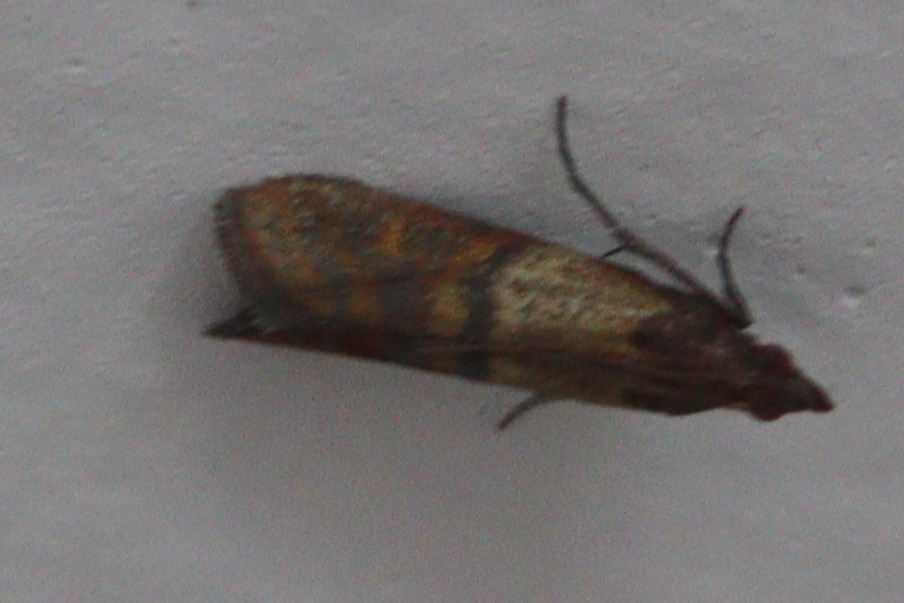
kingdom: Animalia
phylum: Arthropoda
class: Insecta
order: Lepidoptera
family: Pyralidae
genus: Plodia
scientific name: Plodia interpunctella
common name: Indian meal moth
